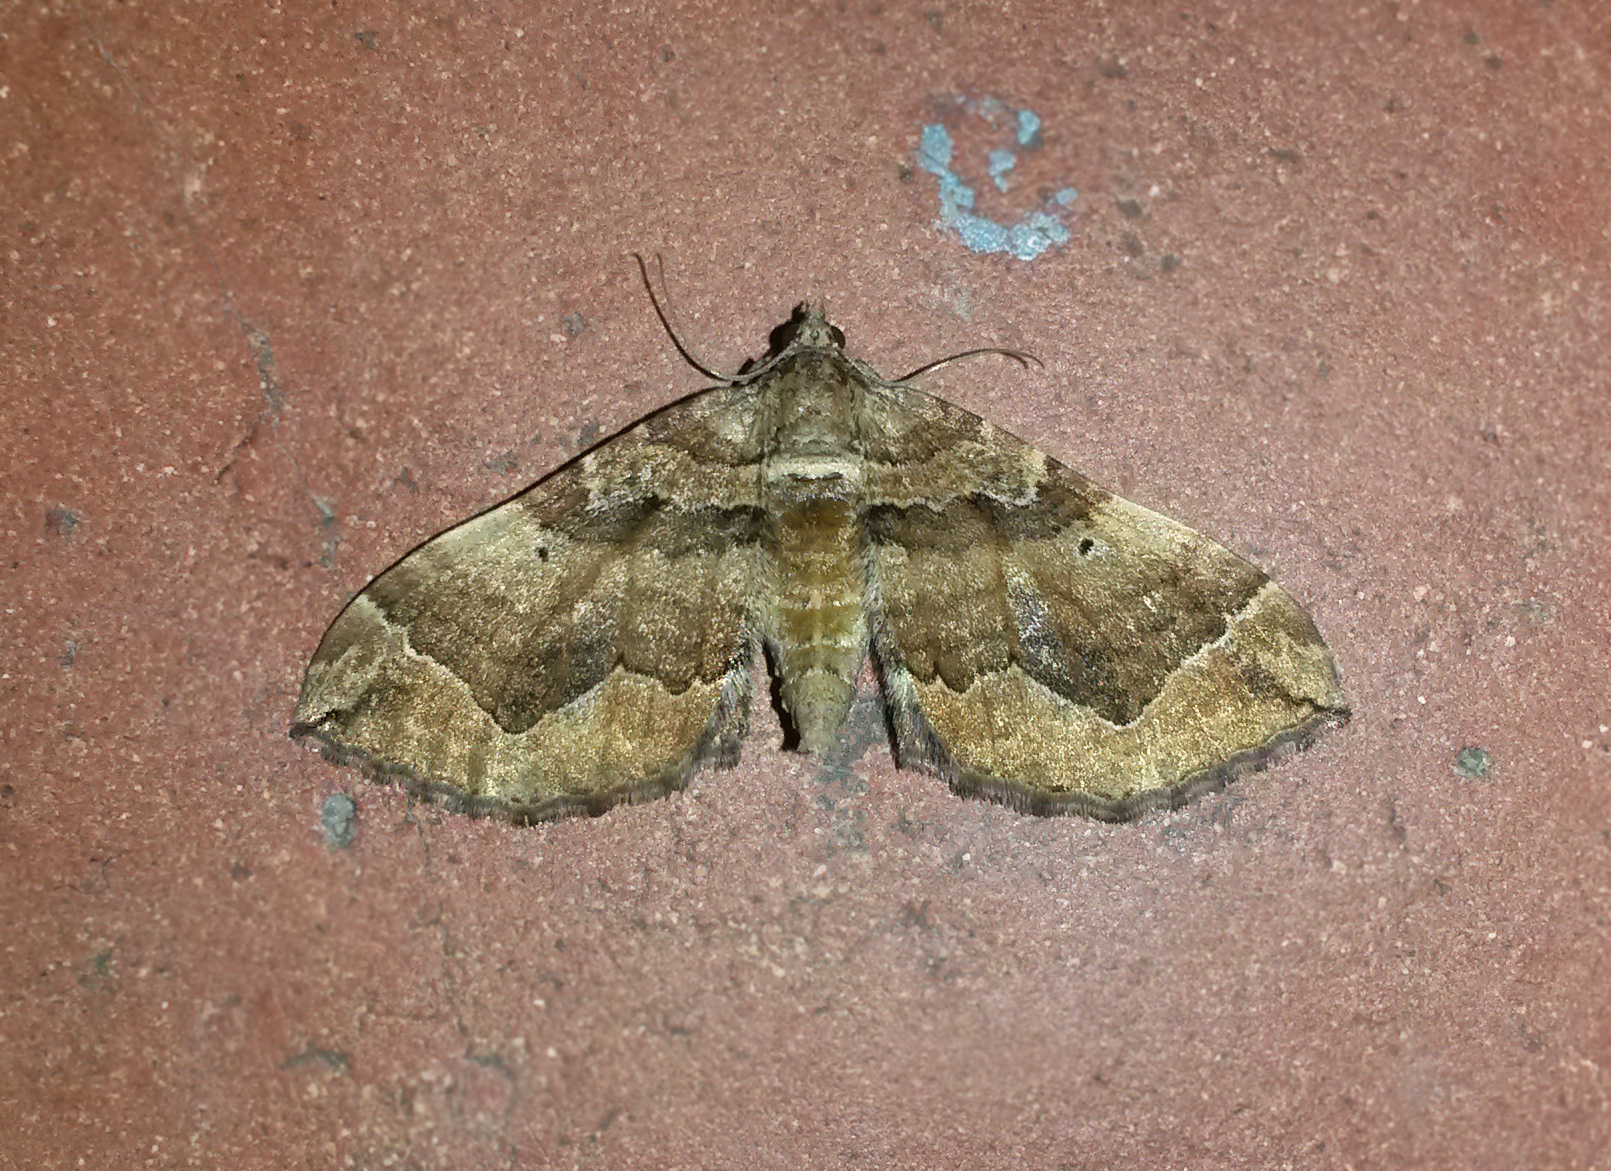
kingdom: Animalia
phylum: Arthropoda
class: Insecta
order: Lepidoptera
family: Geometridae
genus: Pelurga
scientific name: Pelurga comitata
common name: Dark spinach
